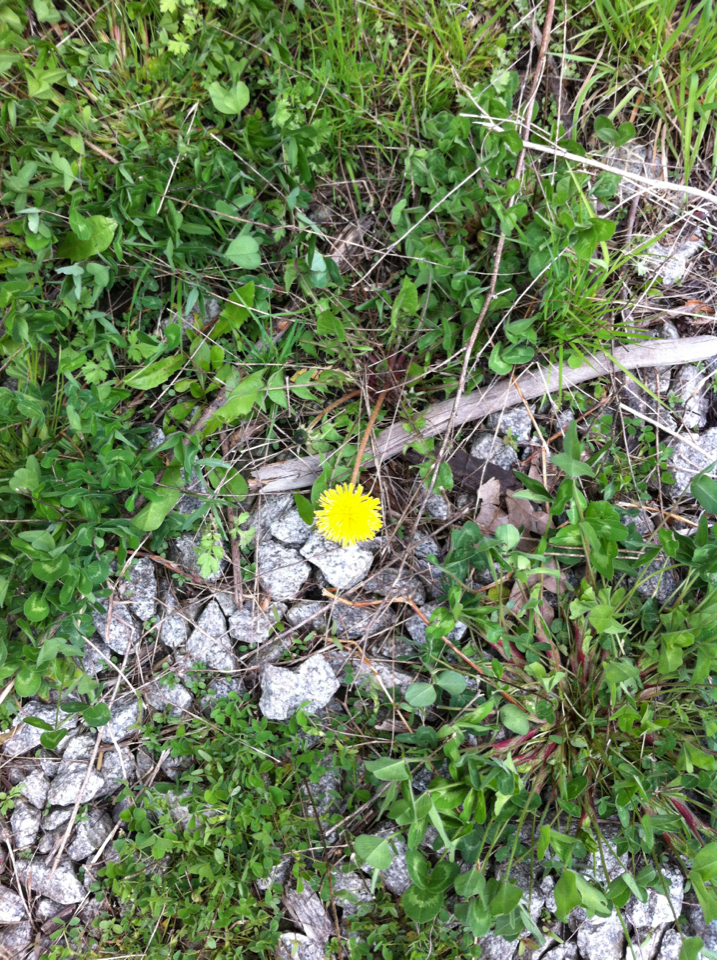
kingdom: Plantae
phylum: Tracheophyta
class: Magnoliopsida
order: Asterales
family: Asteraceae
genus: Taraxacum
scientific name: Taraxacum officinale
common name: Common dandelion
